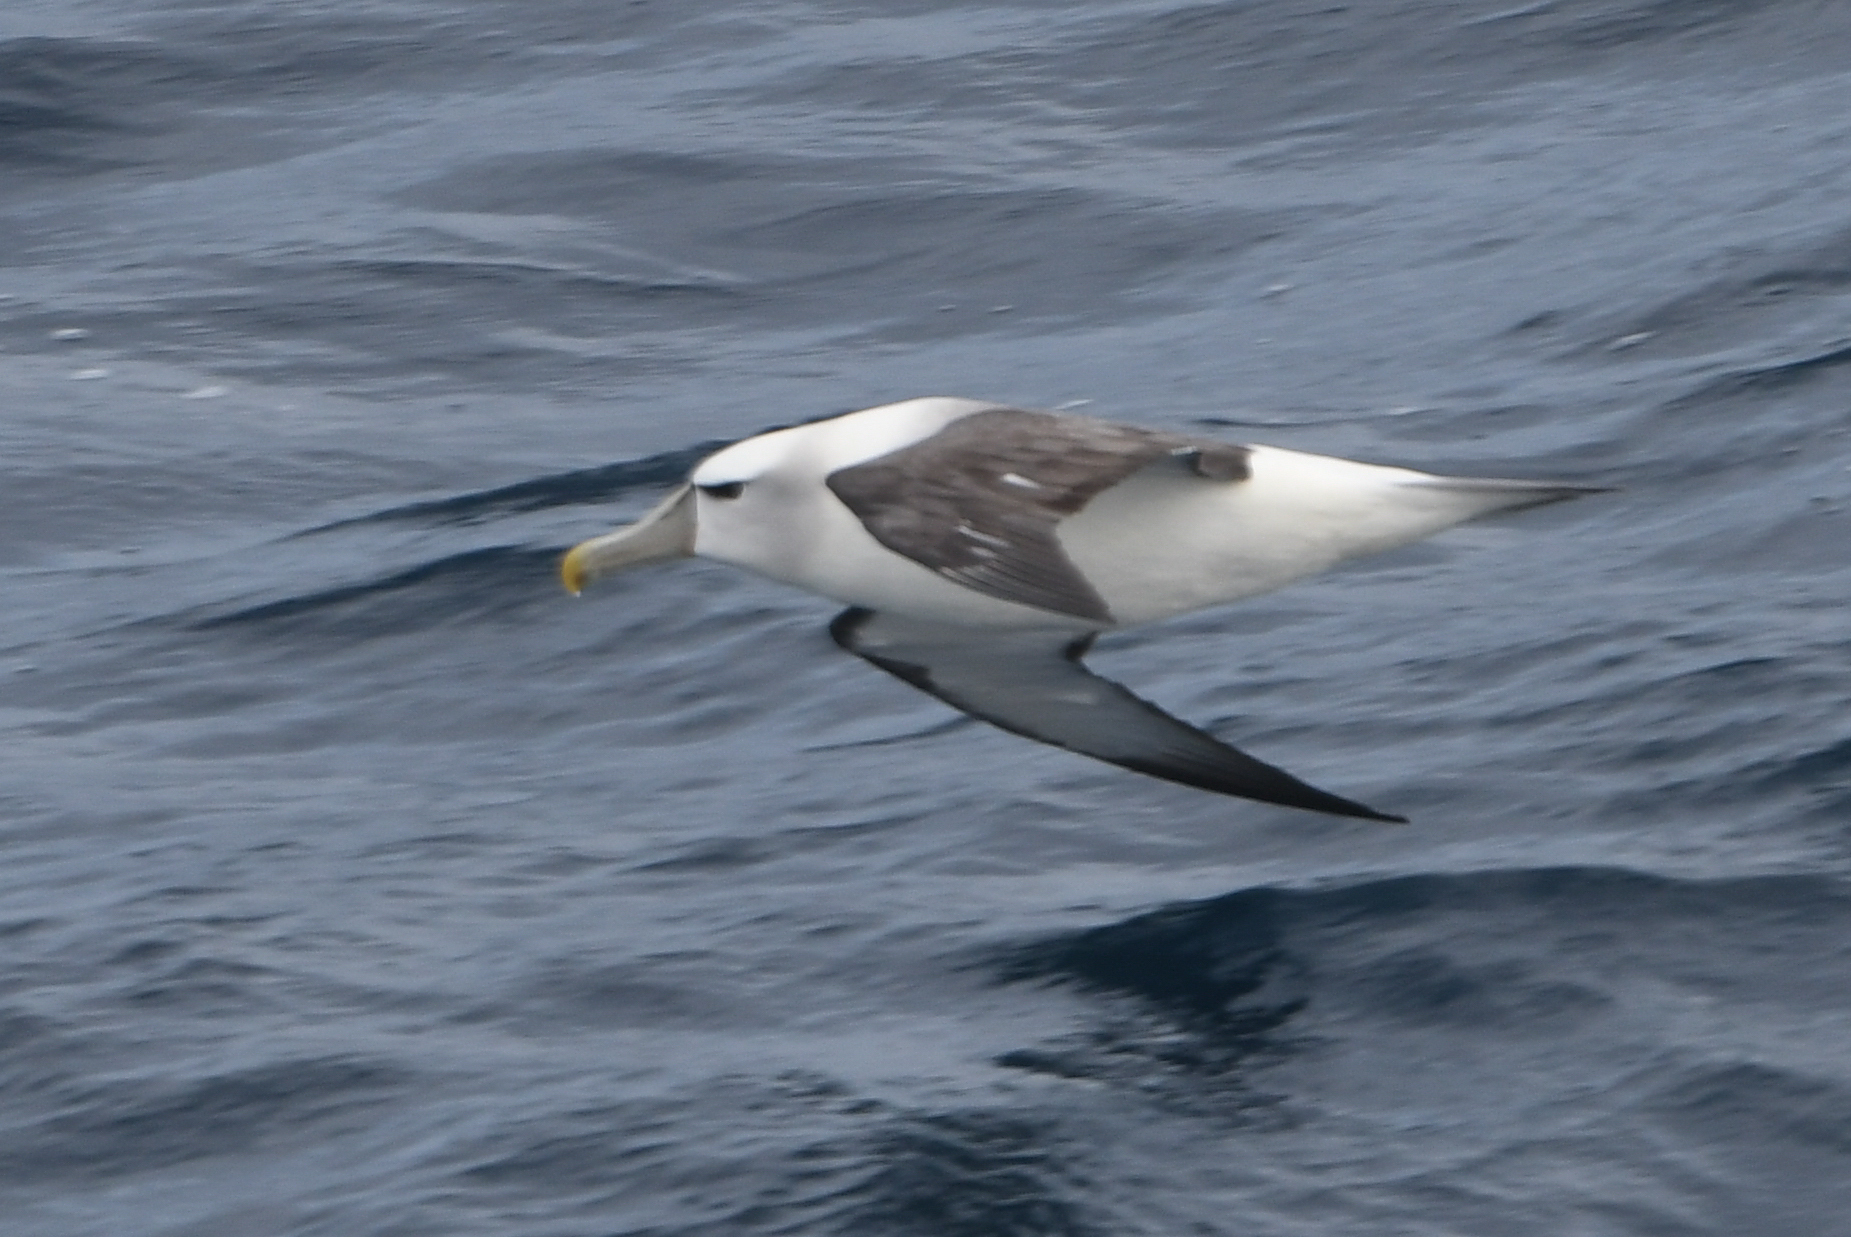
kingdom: Animalia
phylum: Chordata
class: Aves
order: Procellariiformes
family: Diomedeidae
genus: Thalassarche
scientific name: Thalassarche cauta
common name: Shy albatross
